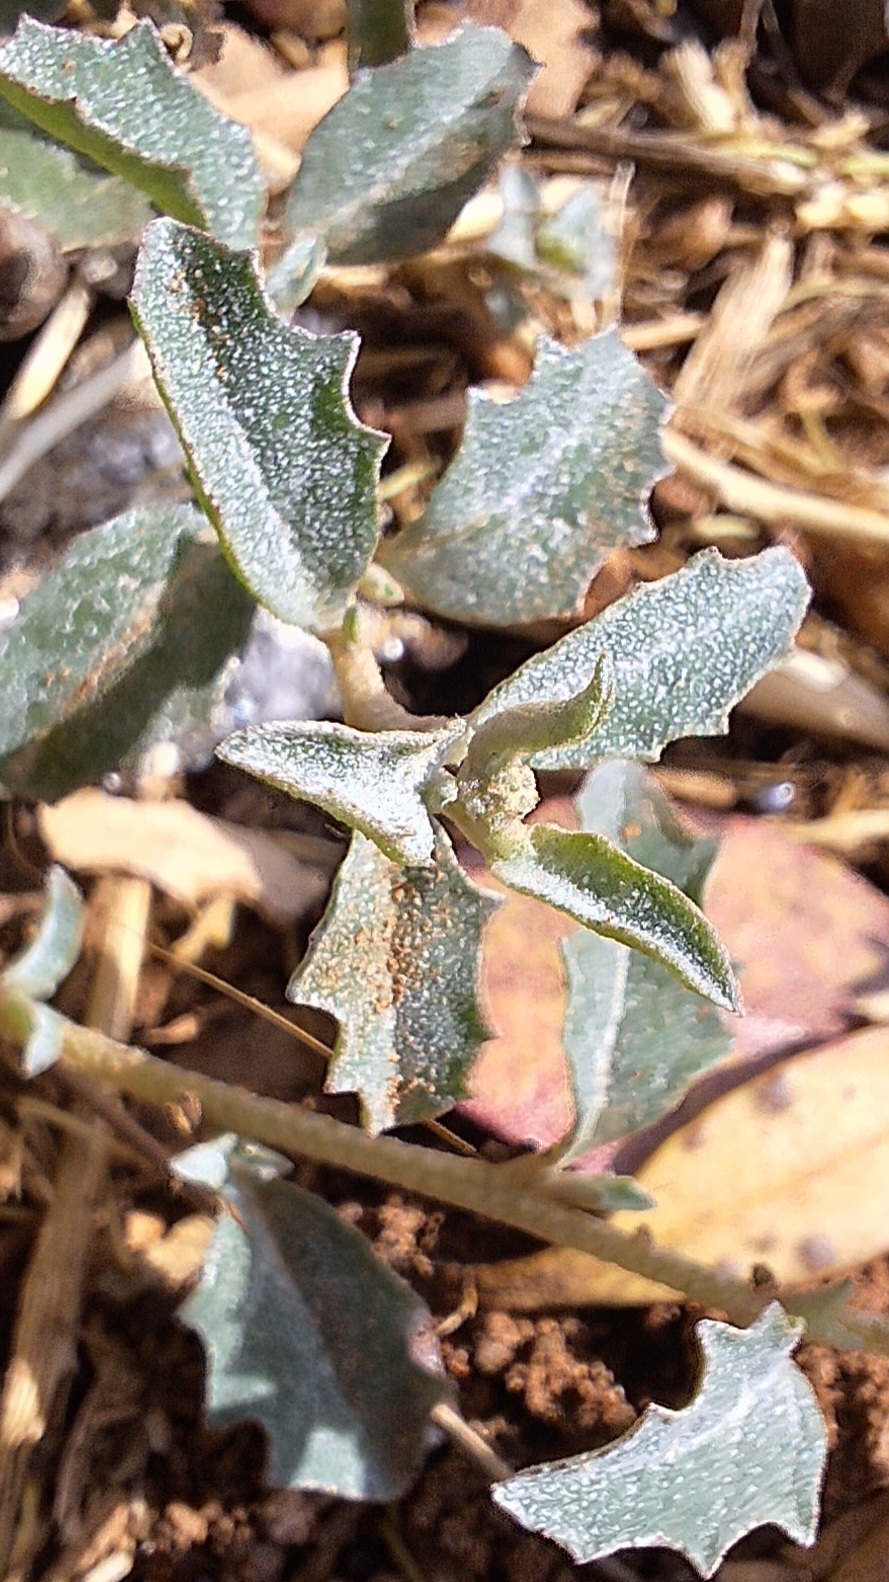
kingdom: Plantae
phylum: Tracheophyta
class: Magnoliopsida
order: Caryophyllales
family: Amaranthaceae
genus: Atriplex
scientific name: Atriplex semibaccata
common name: Australian saltbush
